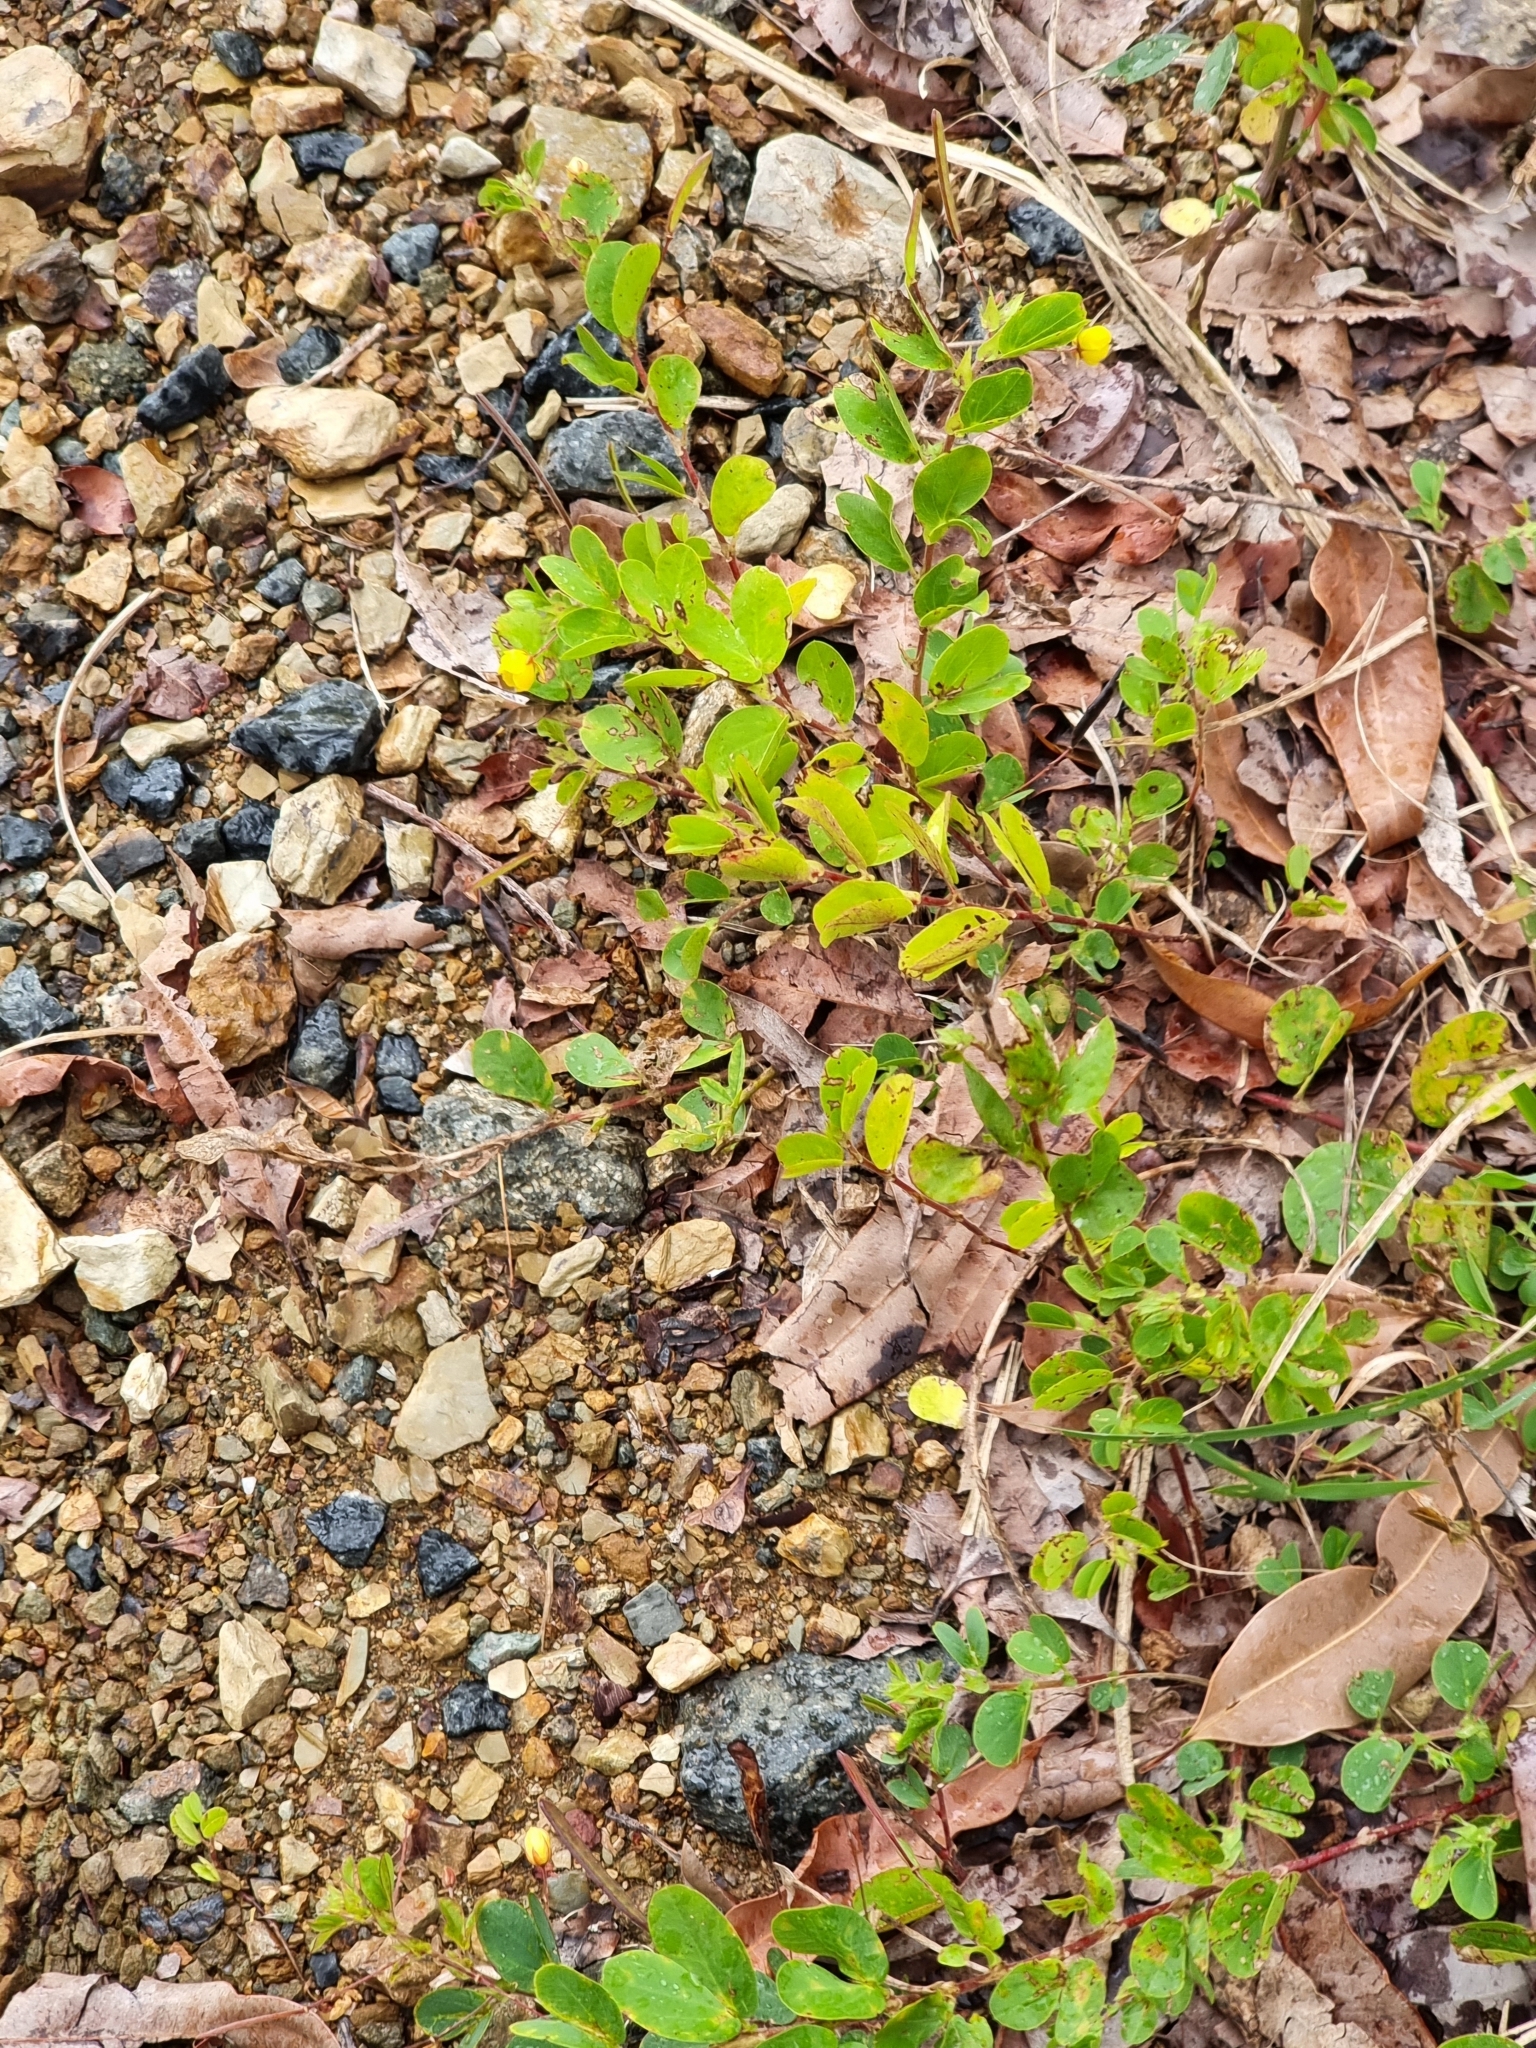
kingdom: Plantae
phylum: Tracheophyta
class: Magnoliopsida
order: Fabales
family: Fabaceae
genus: Chamaecrista
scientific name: Chamaecrista rotundifolia
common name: Round-leaf cassia
